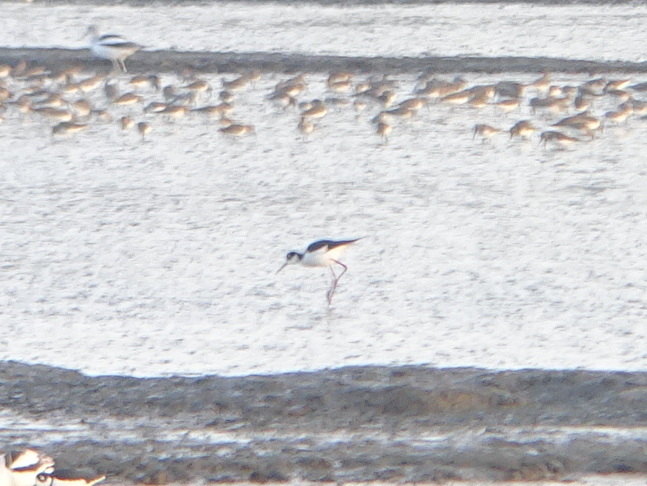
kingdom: Animalia
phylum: Chordata
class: Aves
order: Charadriiformes
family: Recurvirostridae
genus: Himantopus
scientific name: Himantopus mexicanus
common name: Black-necked stilt
